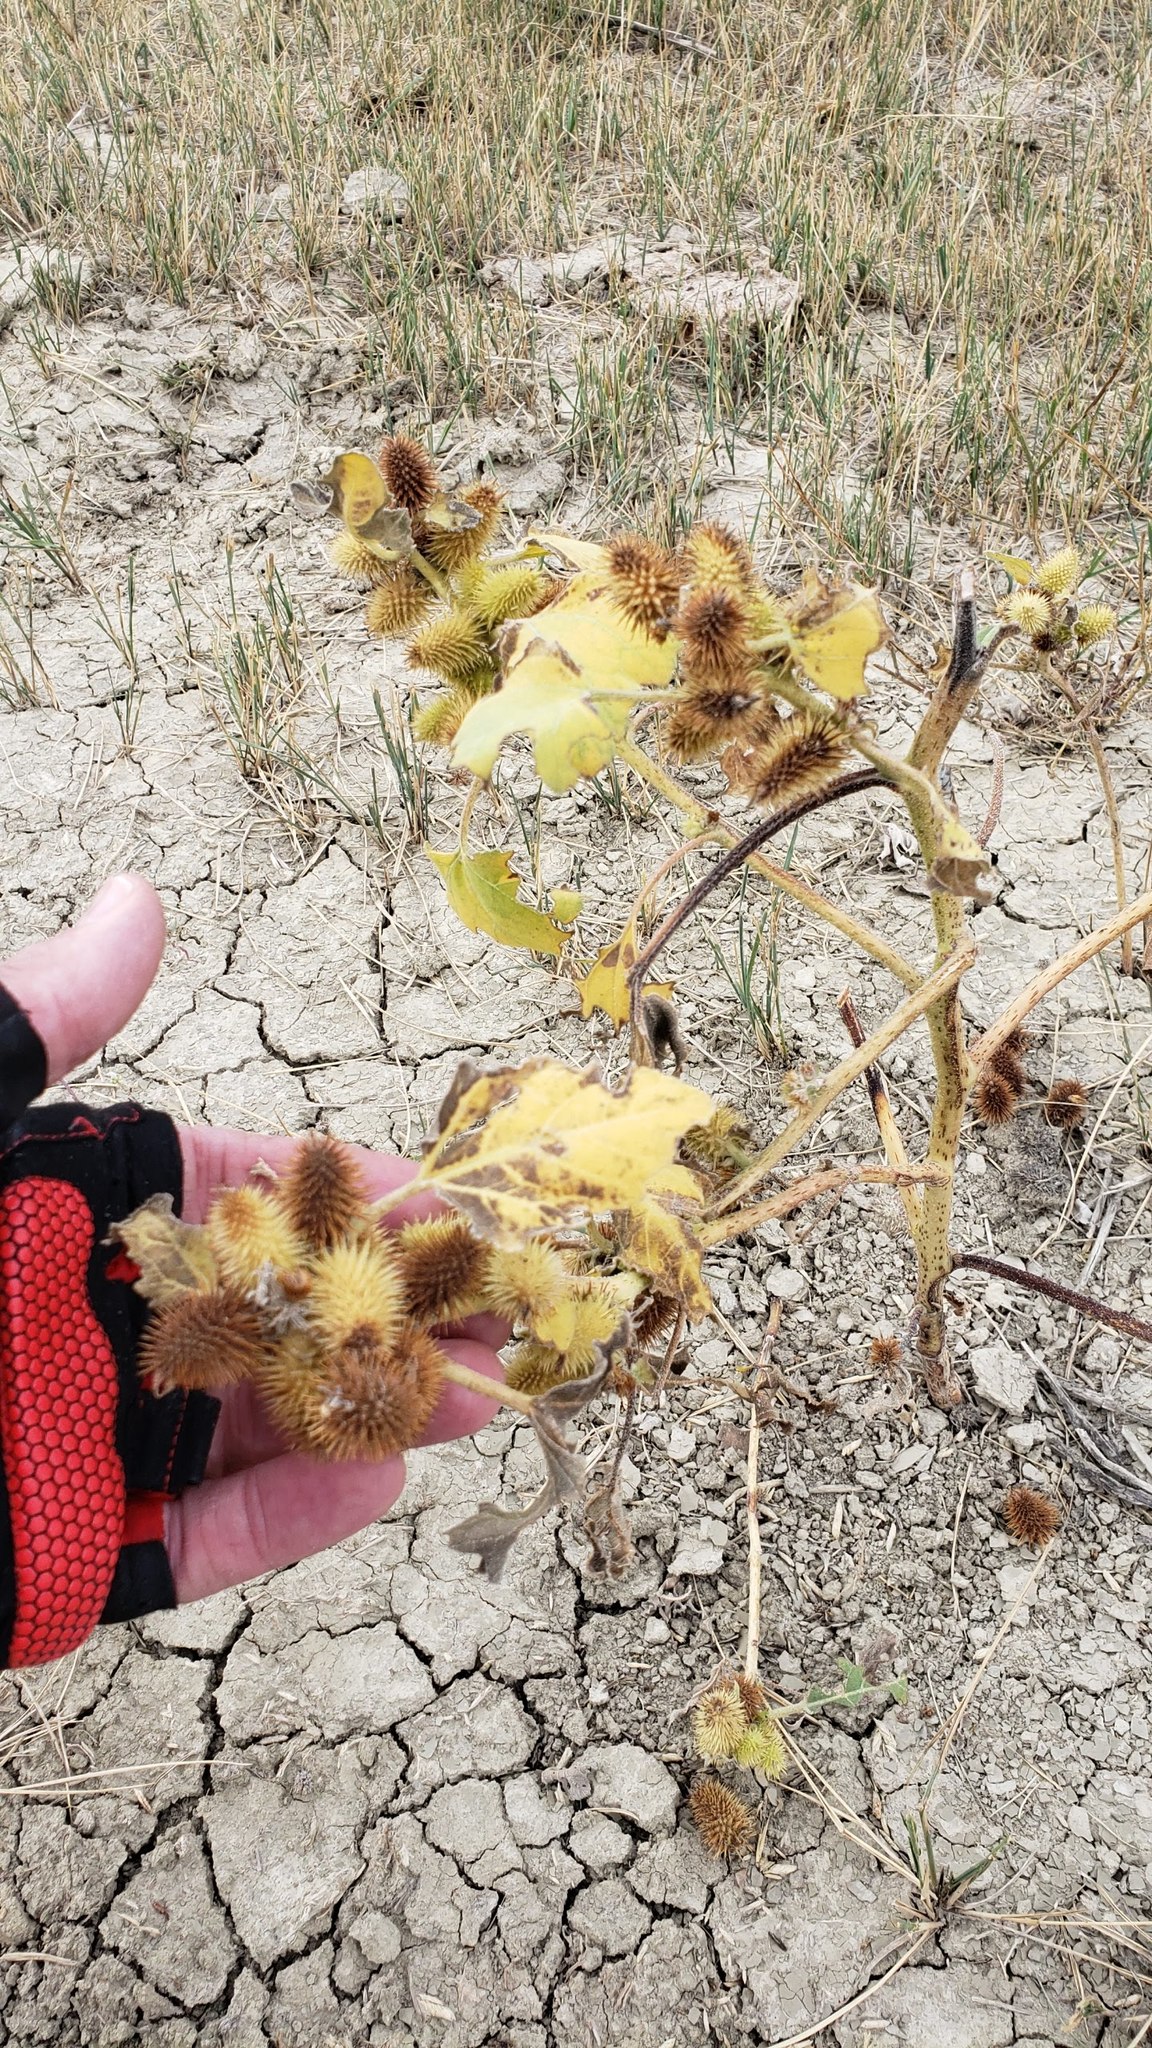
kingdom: Plantae
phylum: Tracheophyta
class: Magnoliopsida
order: Asterales
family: Asteraceae
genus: Xanthium
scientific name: Xanthium strumarium
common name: Rough cocklebur
